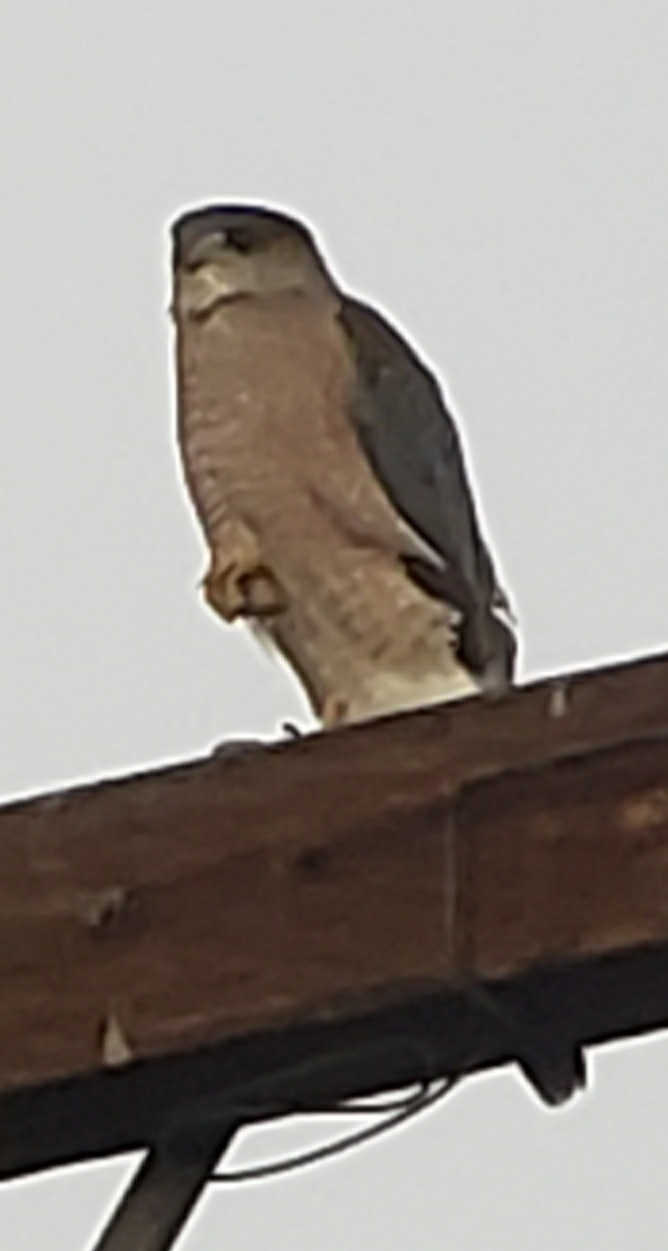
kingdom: Animalia
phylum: Chordata
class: Aves
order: Accipitriformes
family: Accipitridae
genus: Accipiter
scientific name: Accipiter cooperii
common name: Cooper's hawk
